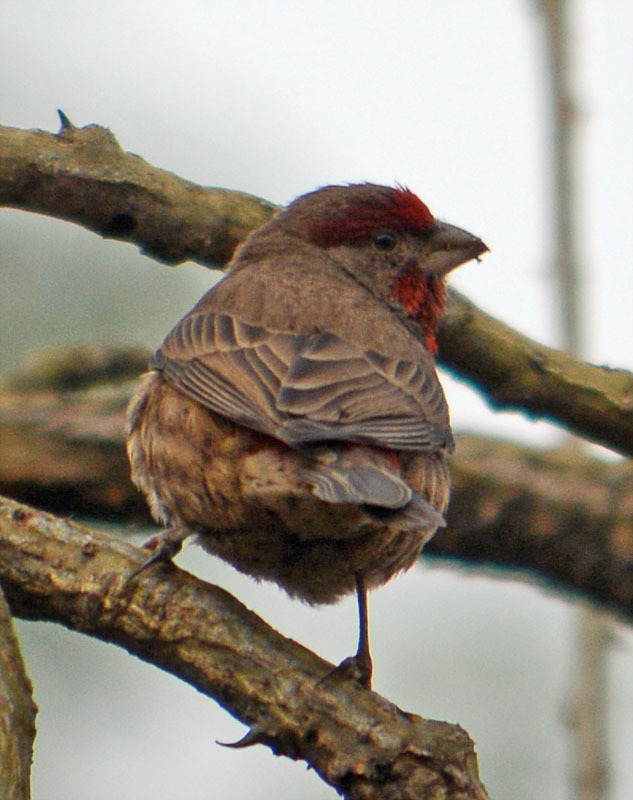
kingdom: Animalia
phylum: Chordata
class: Aves
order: Passeriformes
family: Fringillidae
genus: Haemorhous
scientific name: Haemorhous mexicanus
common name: House finch
